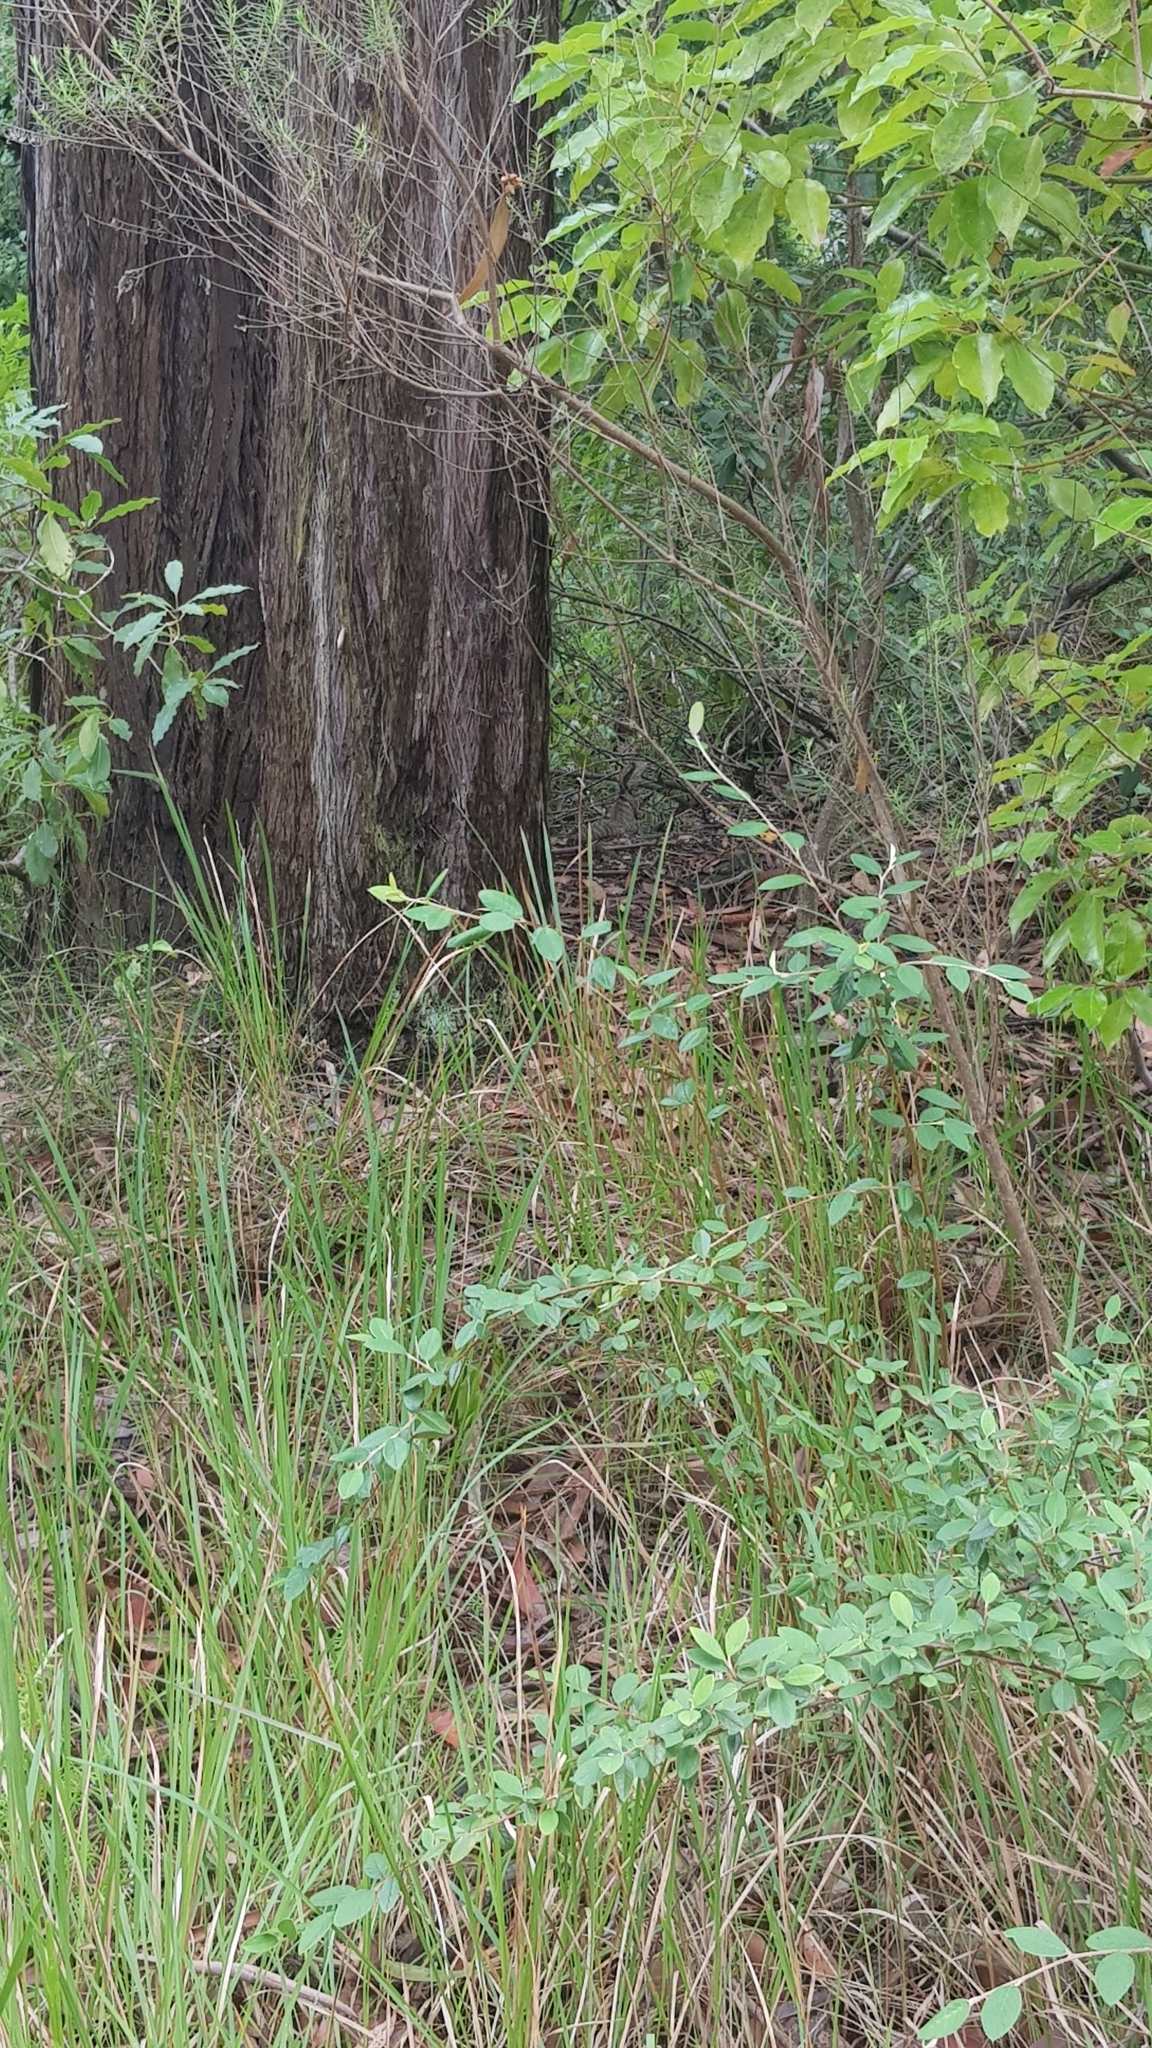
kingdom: Animalia
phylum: Chordata
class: Squamata
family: Agamidae
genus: Intellagama
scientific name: Intellagama lesueurii
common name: Eastern water dragon
